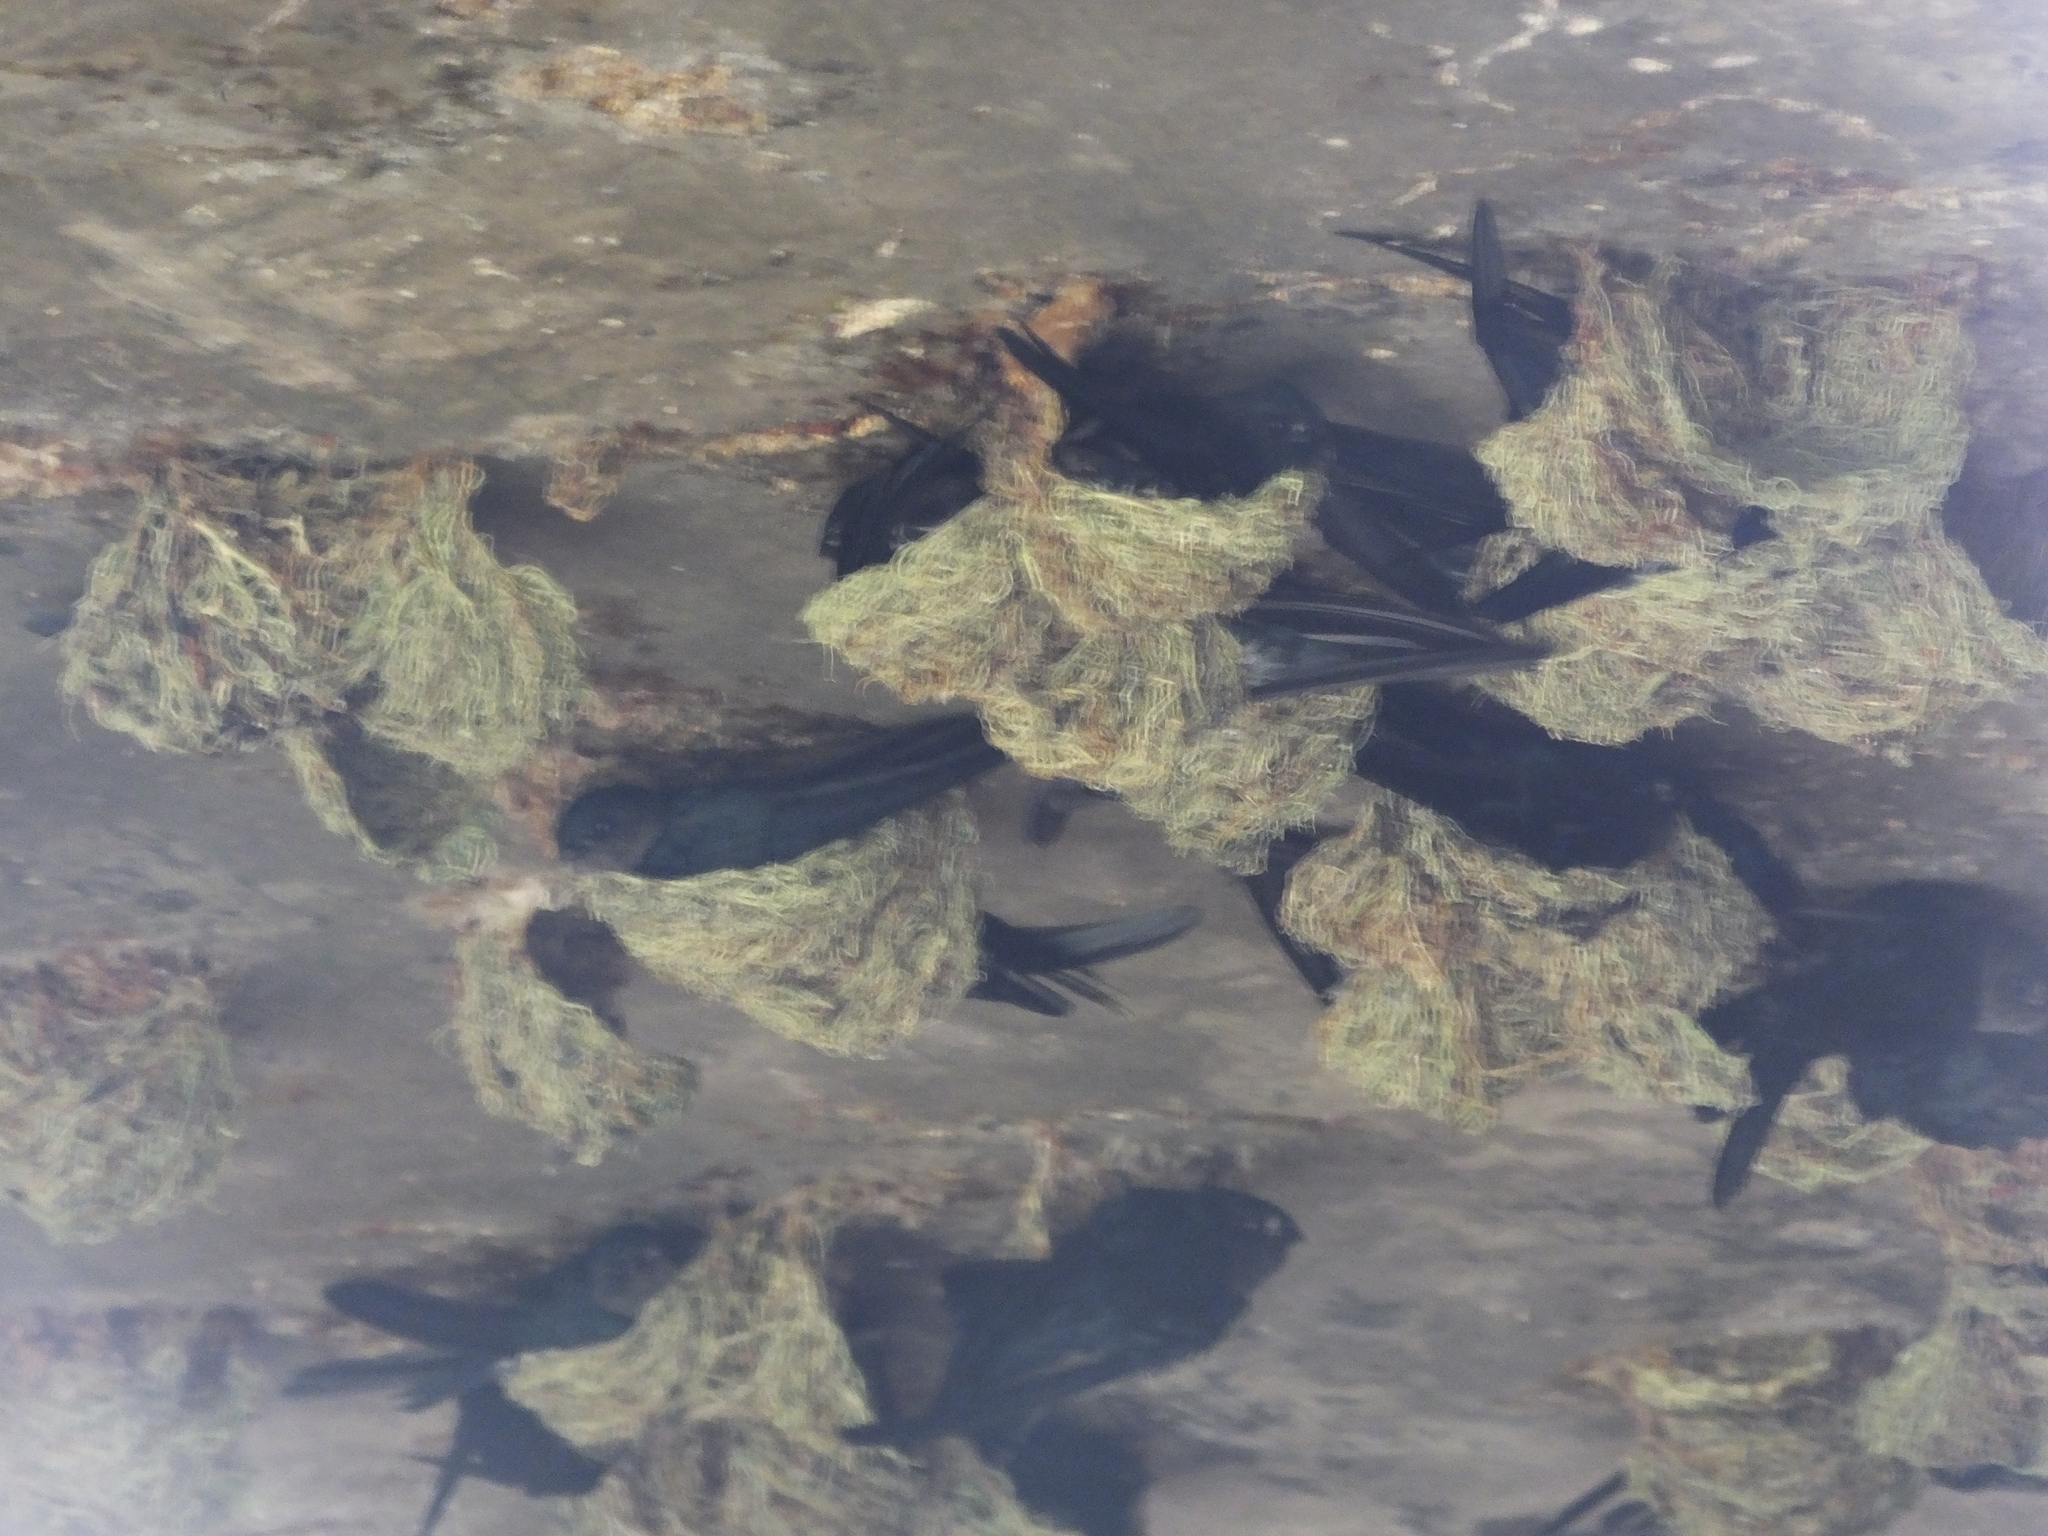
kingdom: Animalia
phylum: Chordata
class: Aves
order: Apodiformes
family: Apodidae
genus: Collocalia
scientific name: Collocalia affinis
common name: Plume-toed swiftlet
